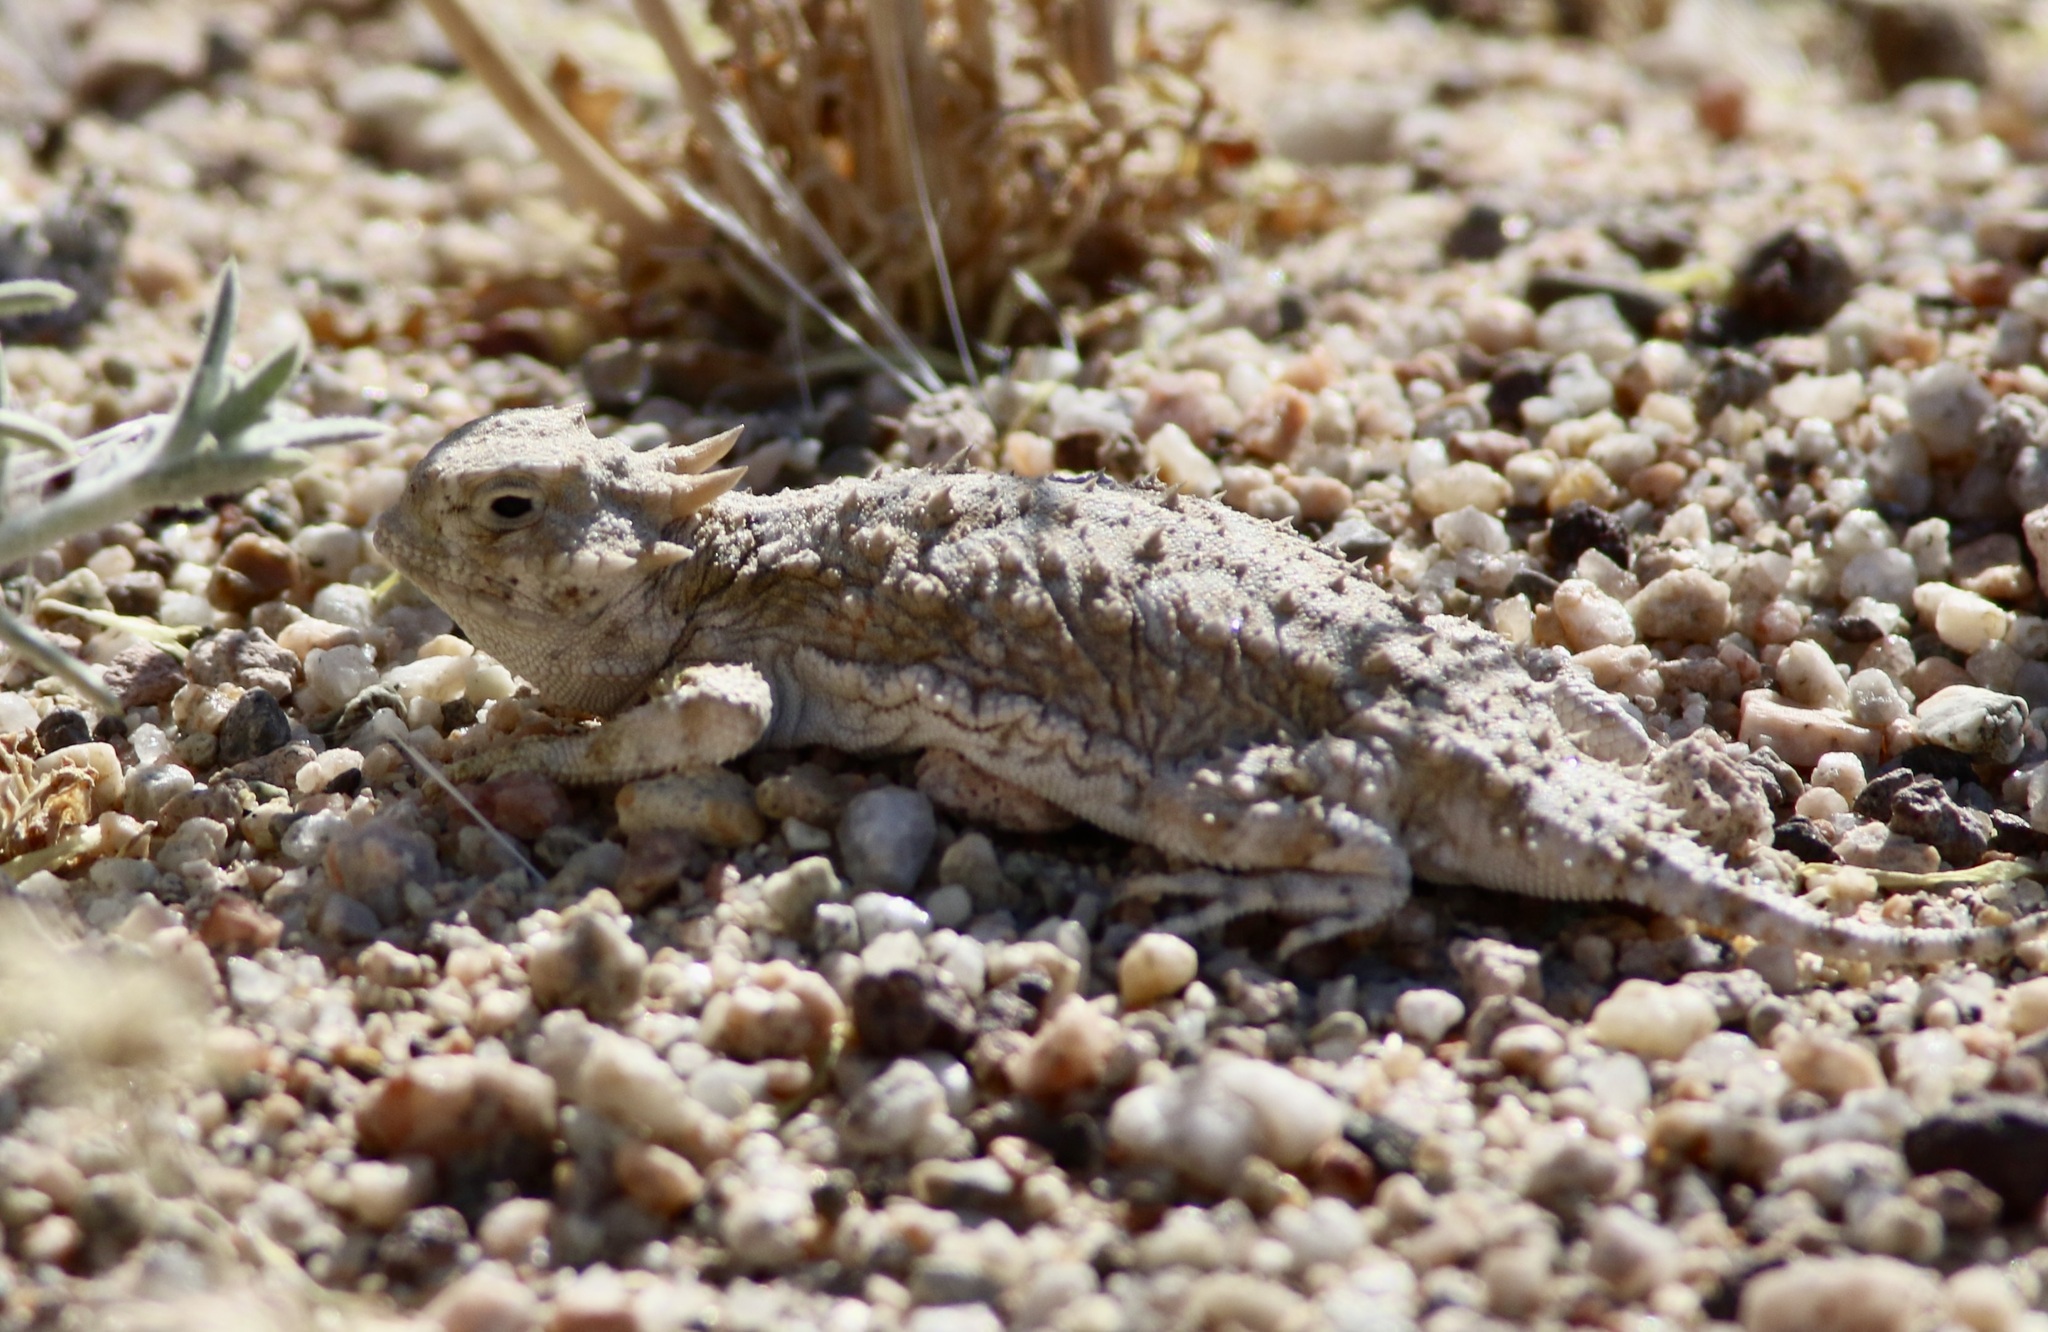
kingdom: Animalia
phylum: Chordata
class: Squamata
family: Phrynosomatidae
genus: Phrynosoma
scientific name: Phrynosoma platyrhinos
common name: Desert horned lizard
